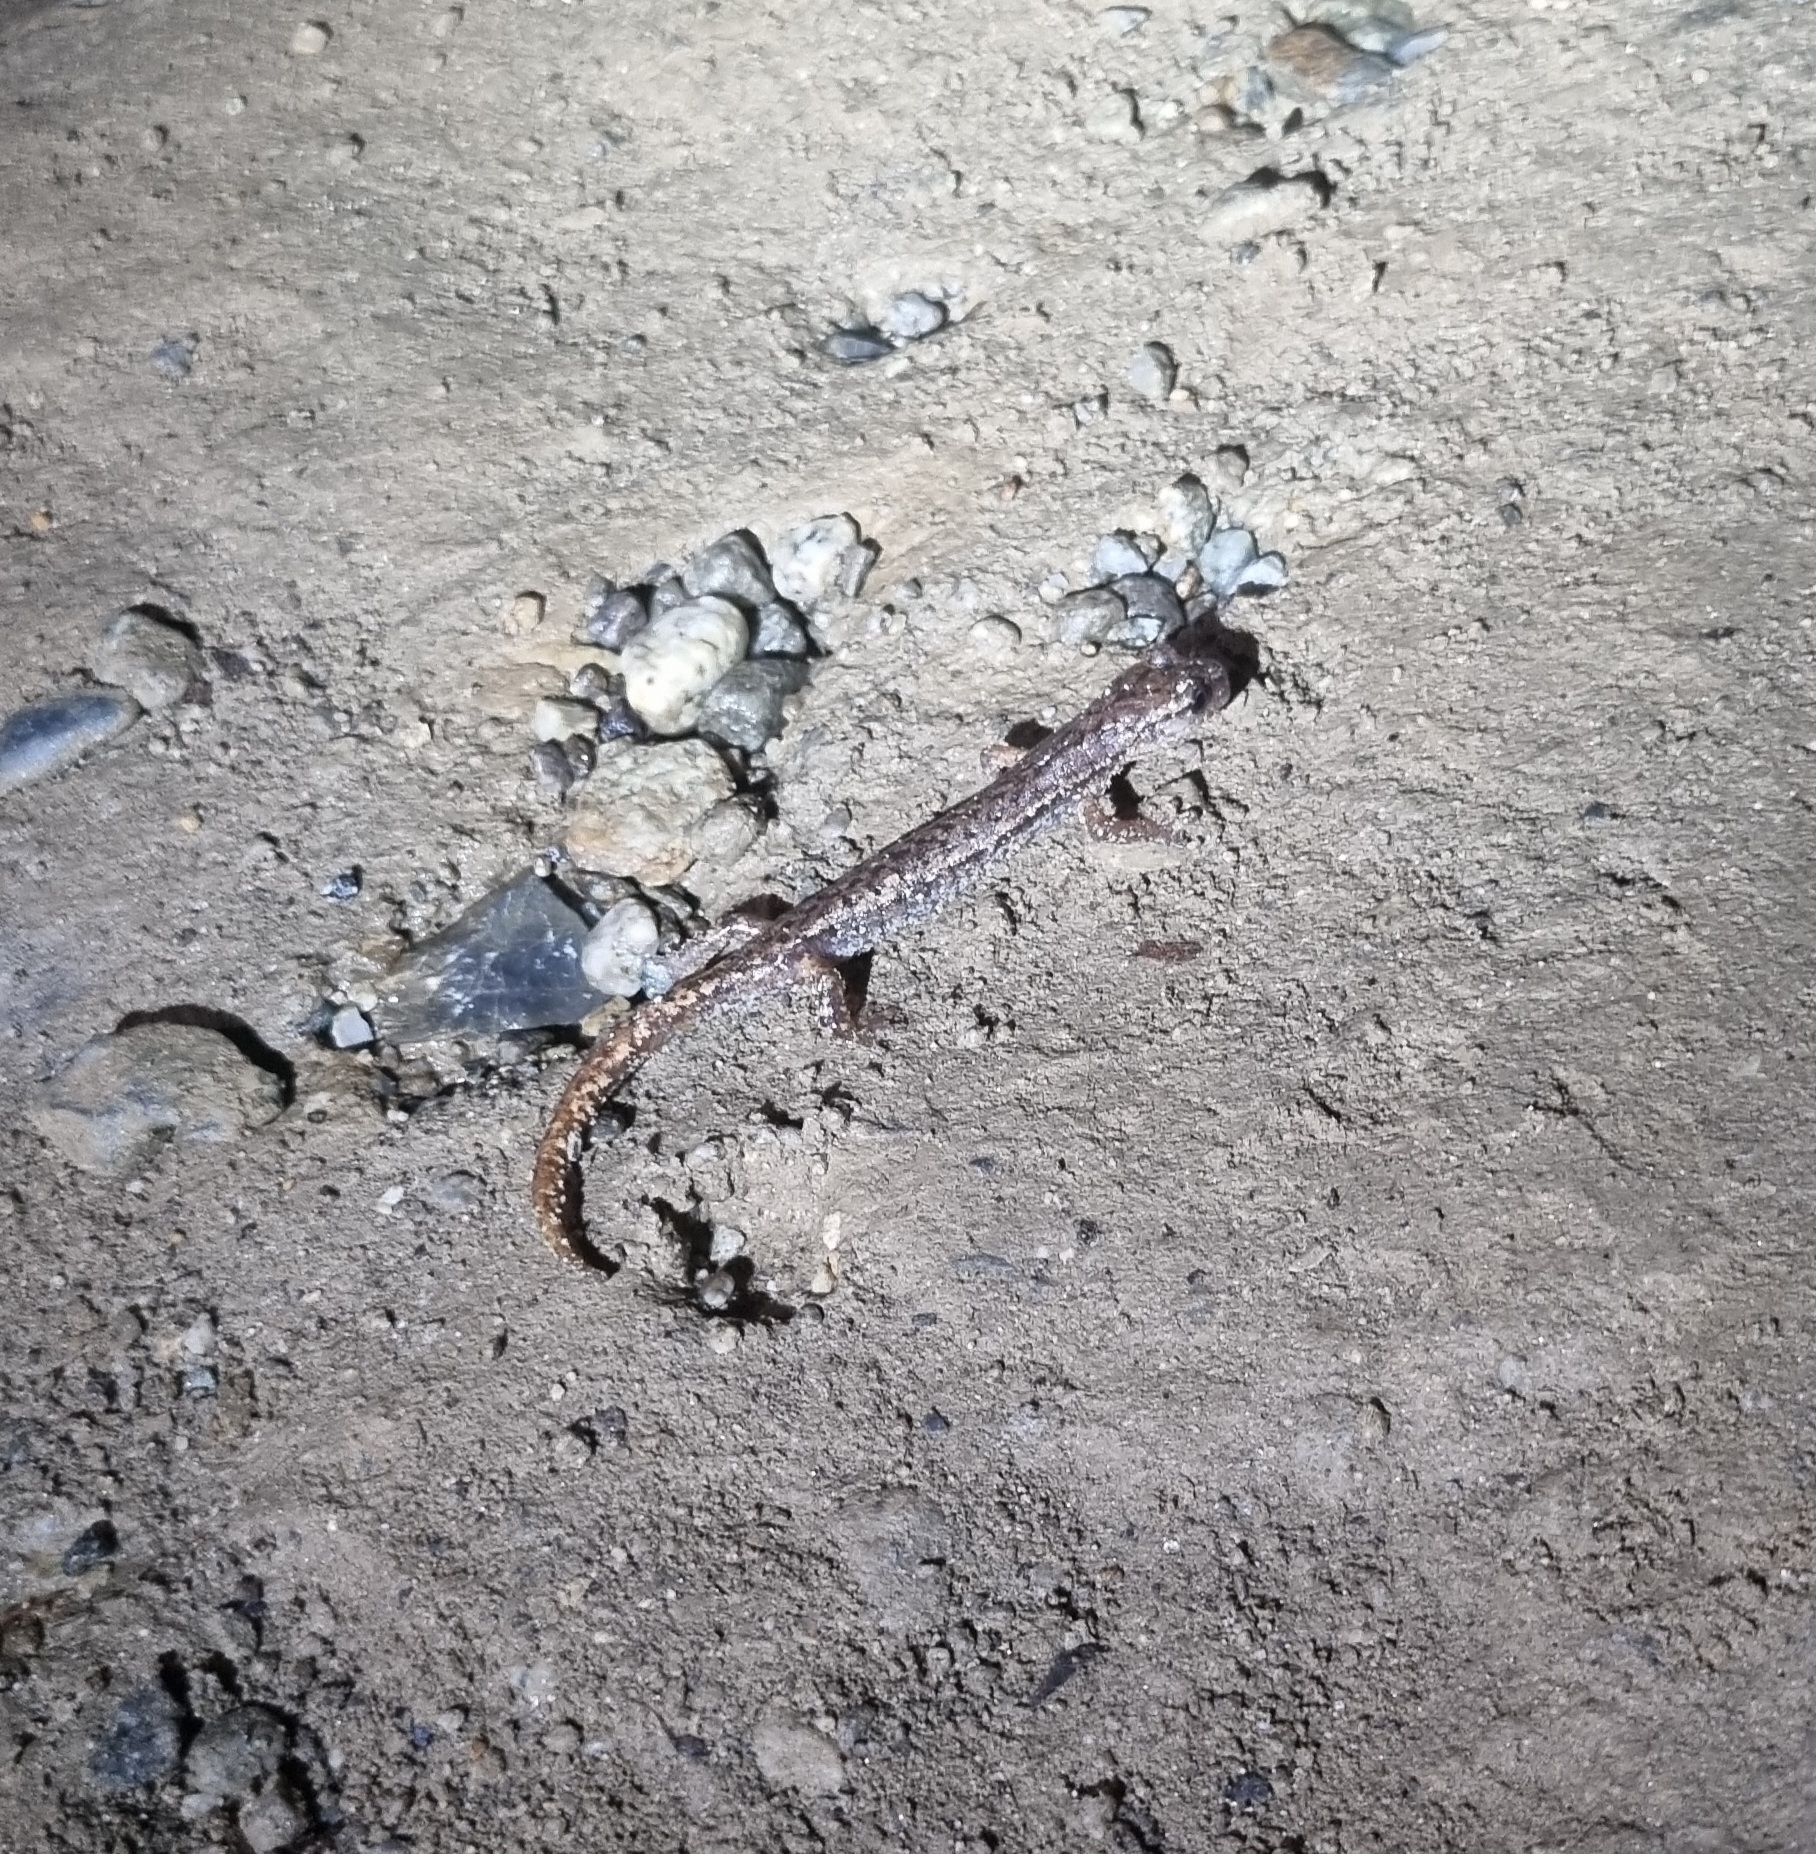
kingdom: Animalia
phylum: Chordata
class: Amphibia
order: Caudata
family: Plethodontidae
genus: Speleomantes
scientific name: Speleomantes strinatii
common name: French cave salamander
